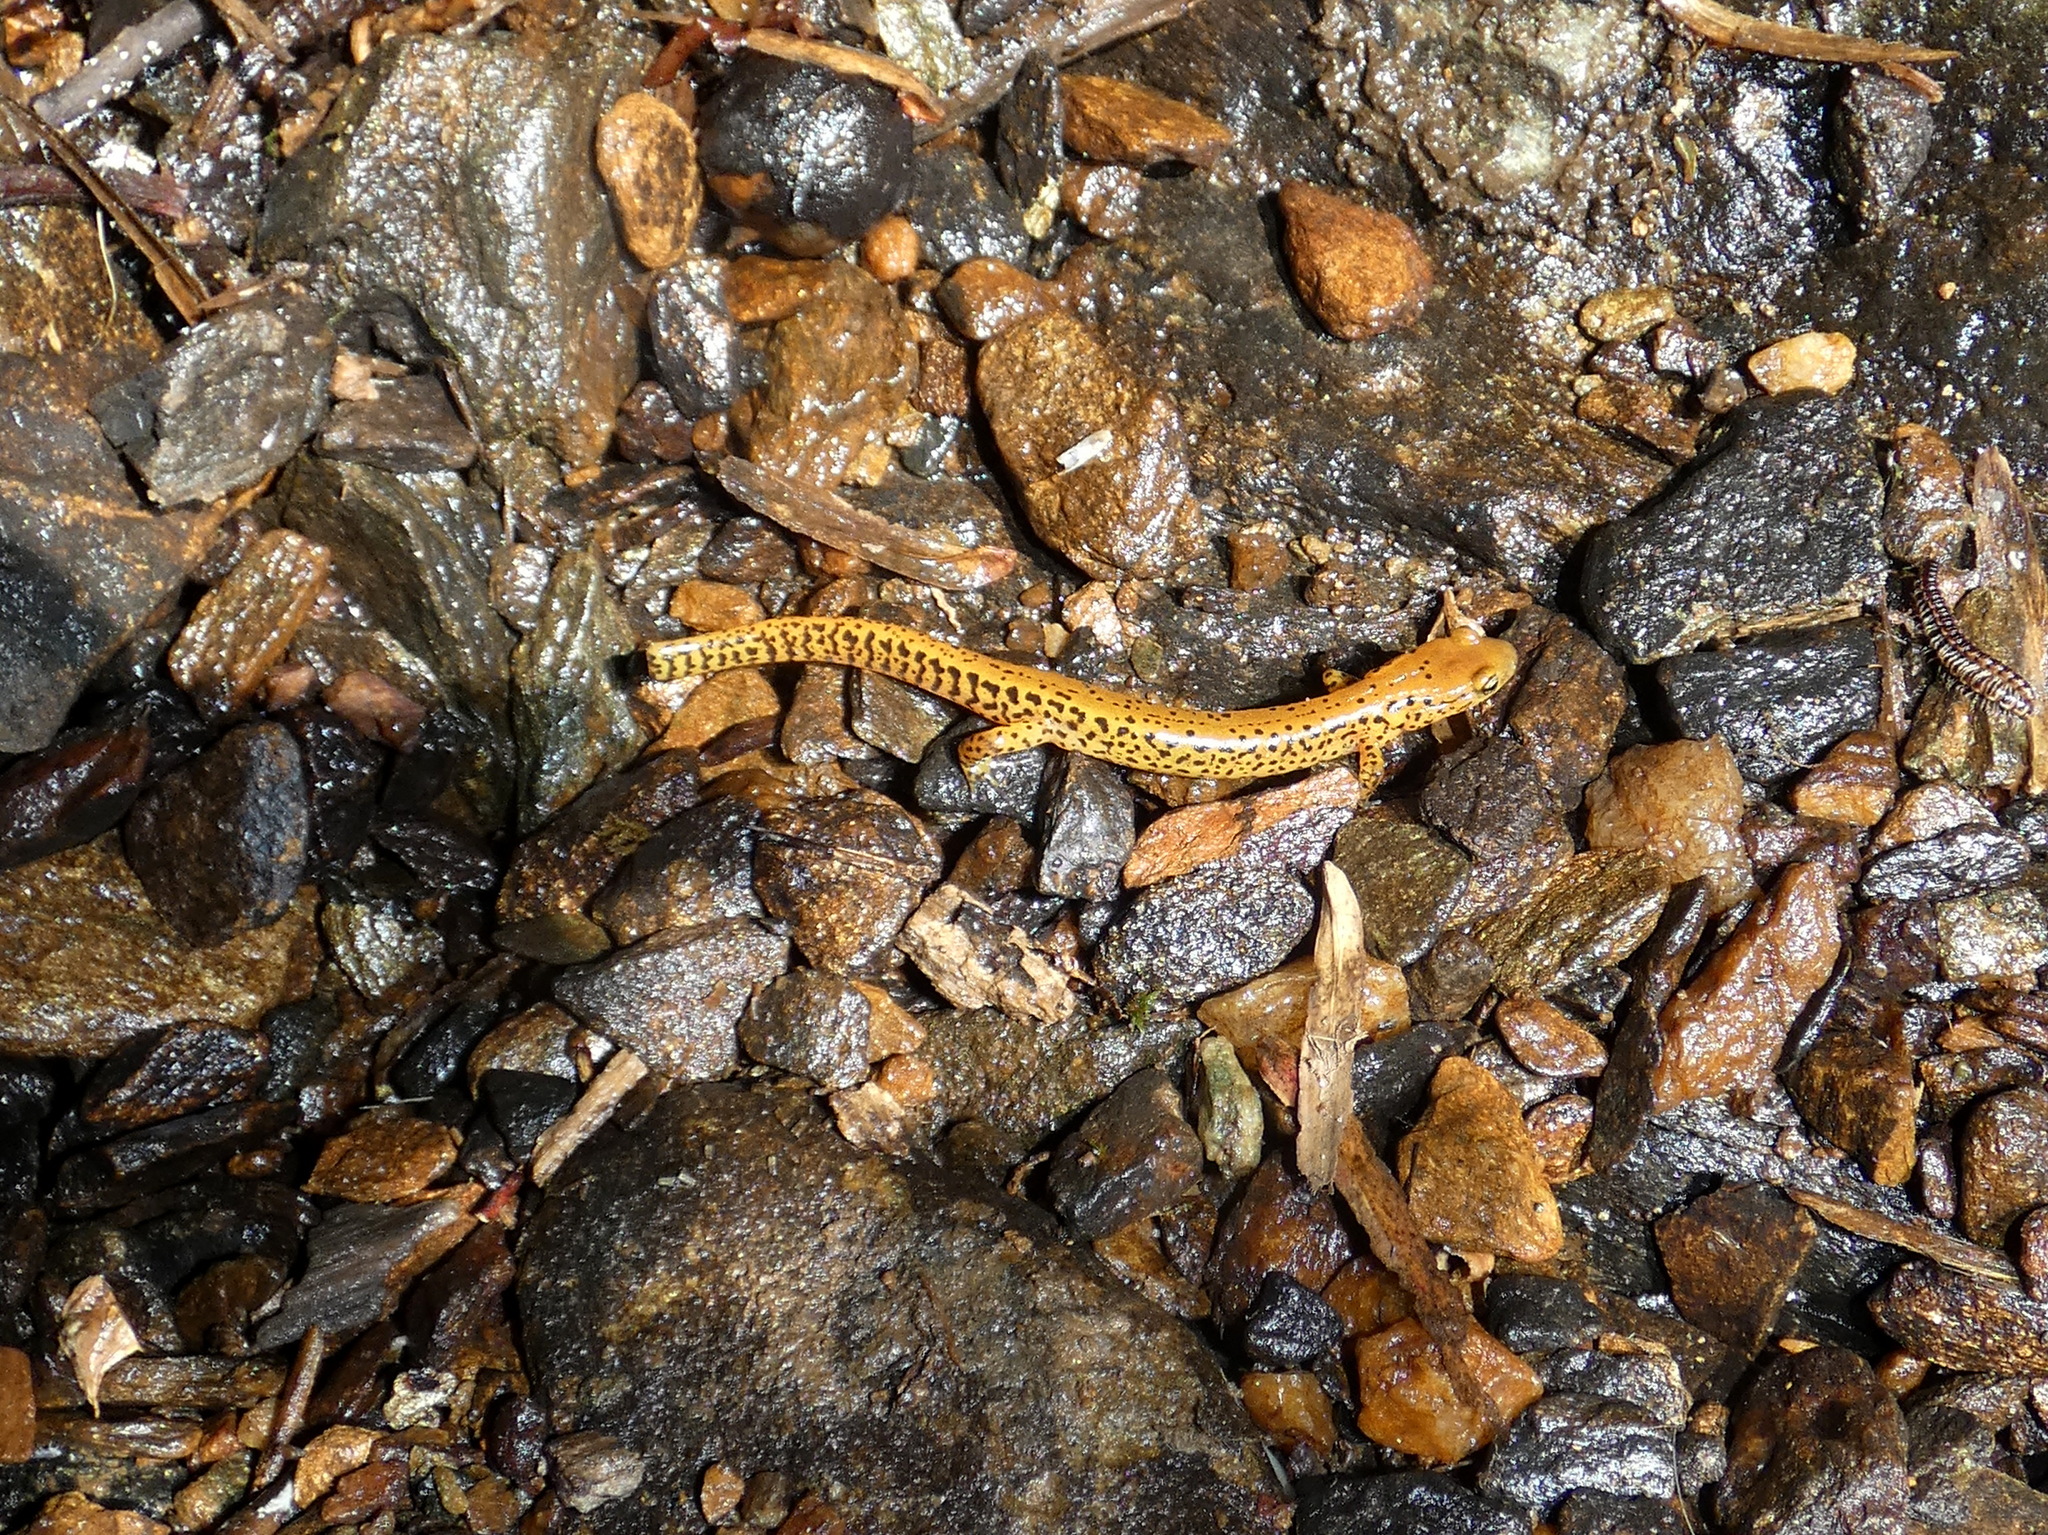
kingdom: Animalia
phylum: Chordata
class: Amphibia
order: Caudata
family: Plethodontidae
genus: Eurycea
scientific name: Eurycea longicauda
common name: Long-tailed salamander
